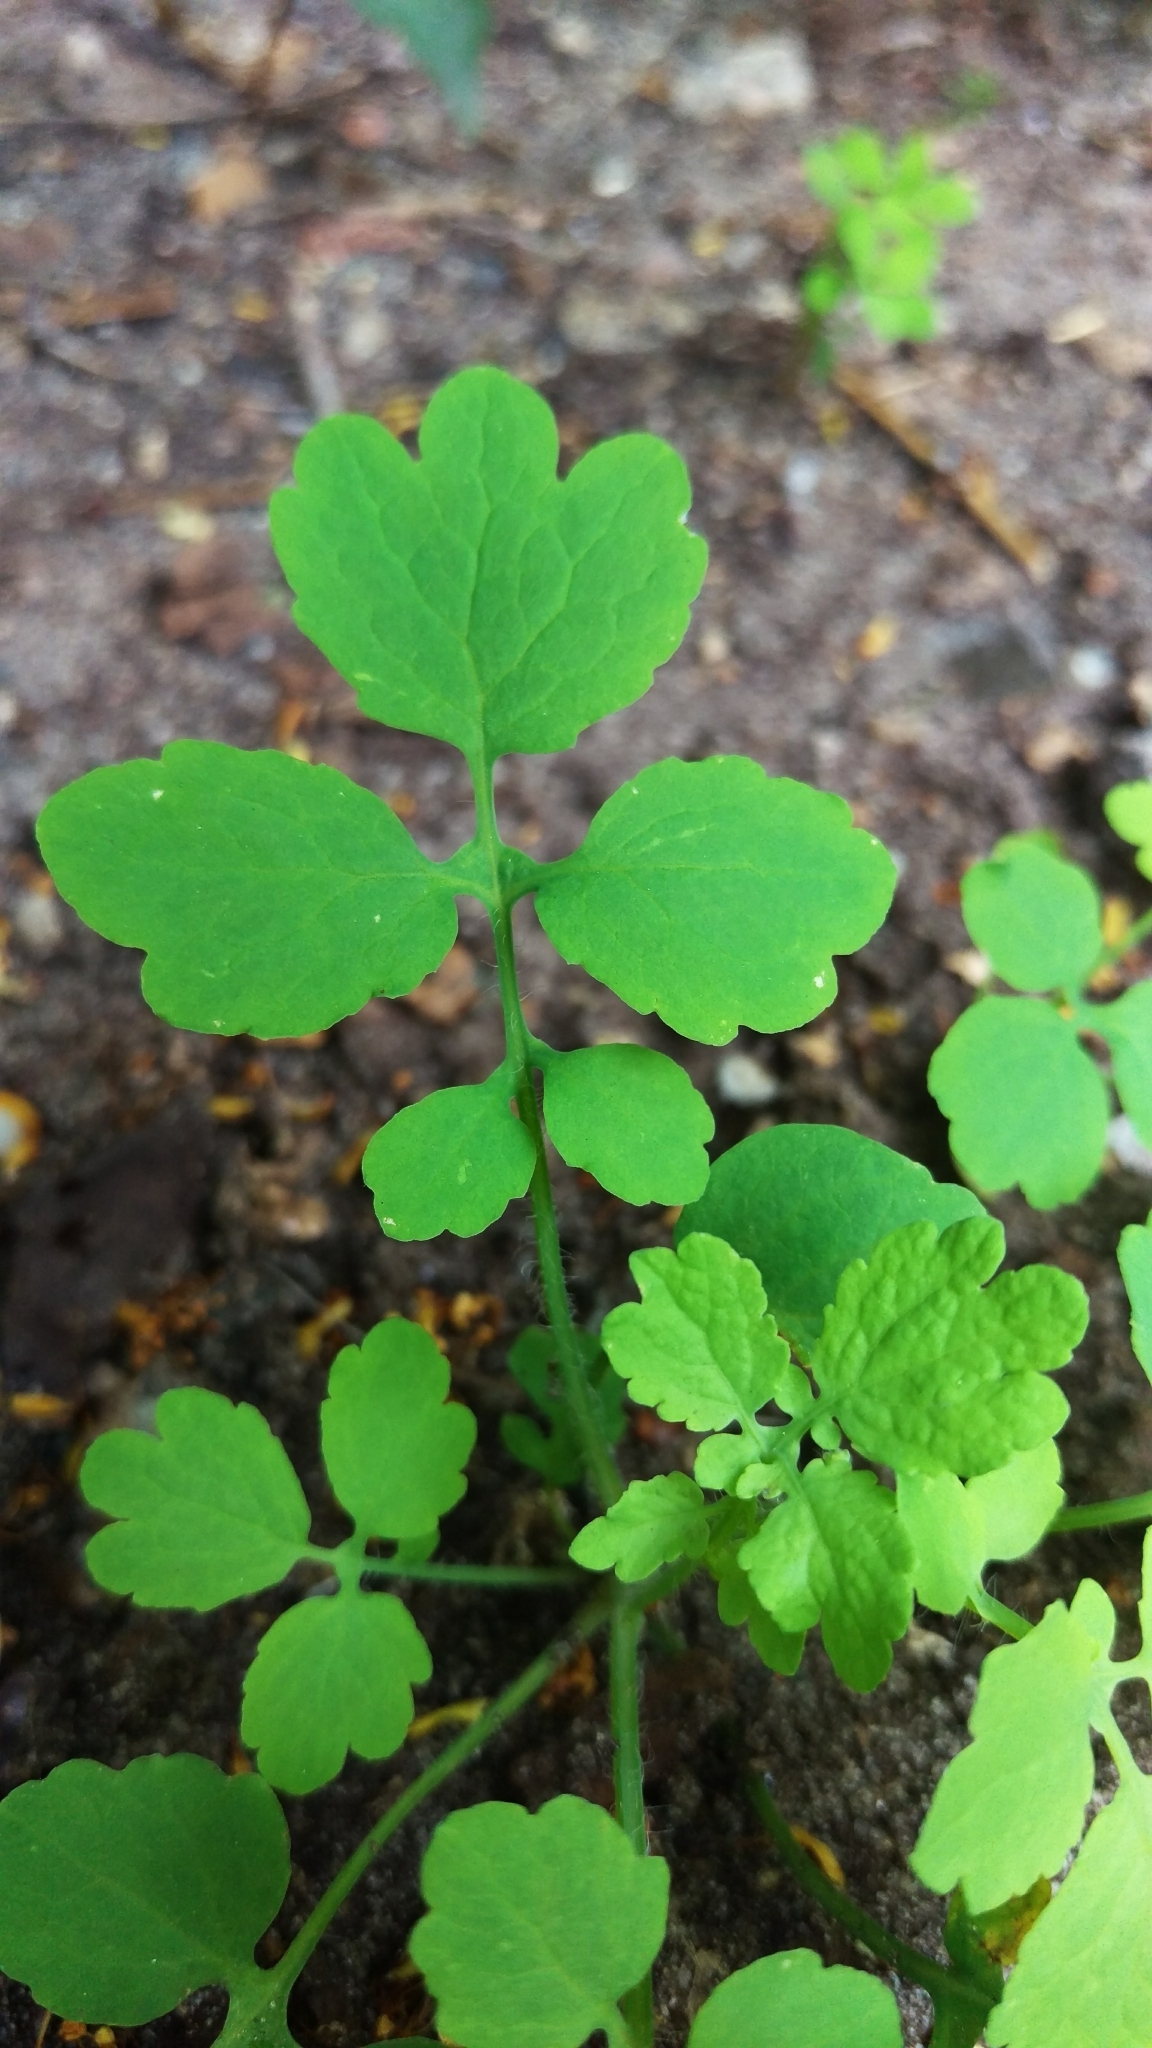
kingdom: Plantae
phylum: Tracheophyta
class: Magnoliopsida
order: Ranunculales
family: Papaveraceae
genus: Chelidonium
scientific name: Chelidonium majus
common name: Greater celandine
